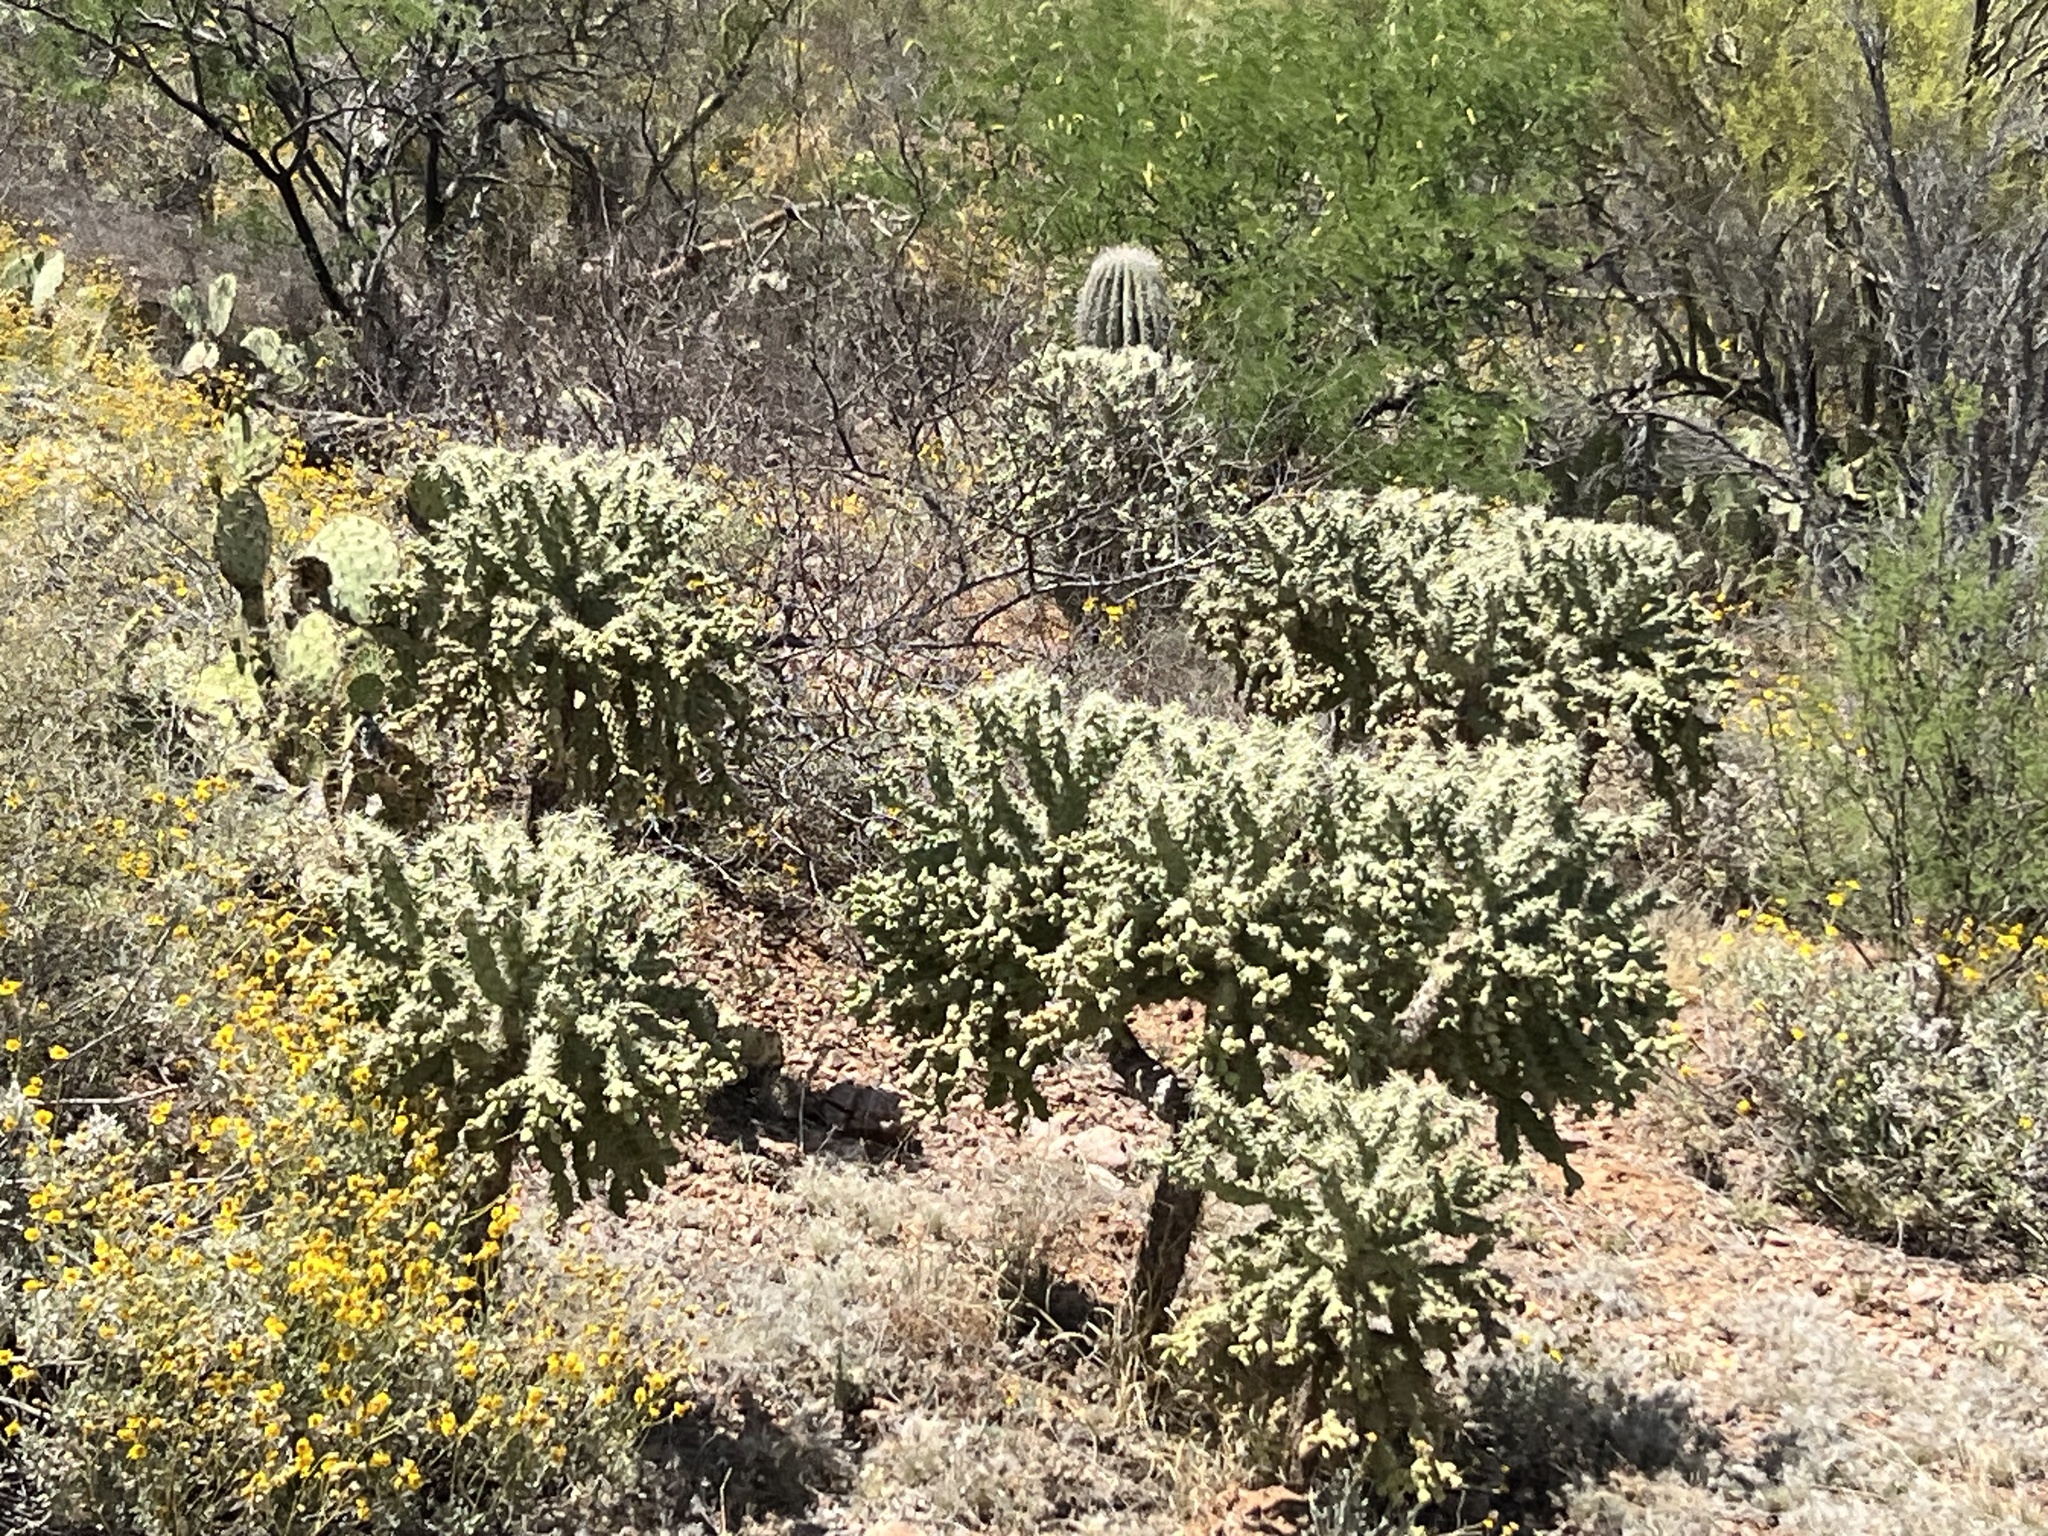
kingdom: Plantae
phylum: Tracheophyta
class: Magnoliopsida
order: Caryophyllales
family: Cactaceae
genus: Cylindropuntia
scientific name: Cylindropuntia fulgida
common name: Jumping cholla
